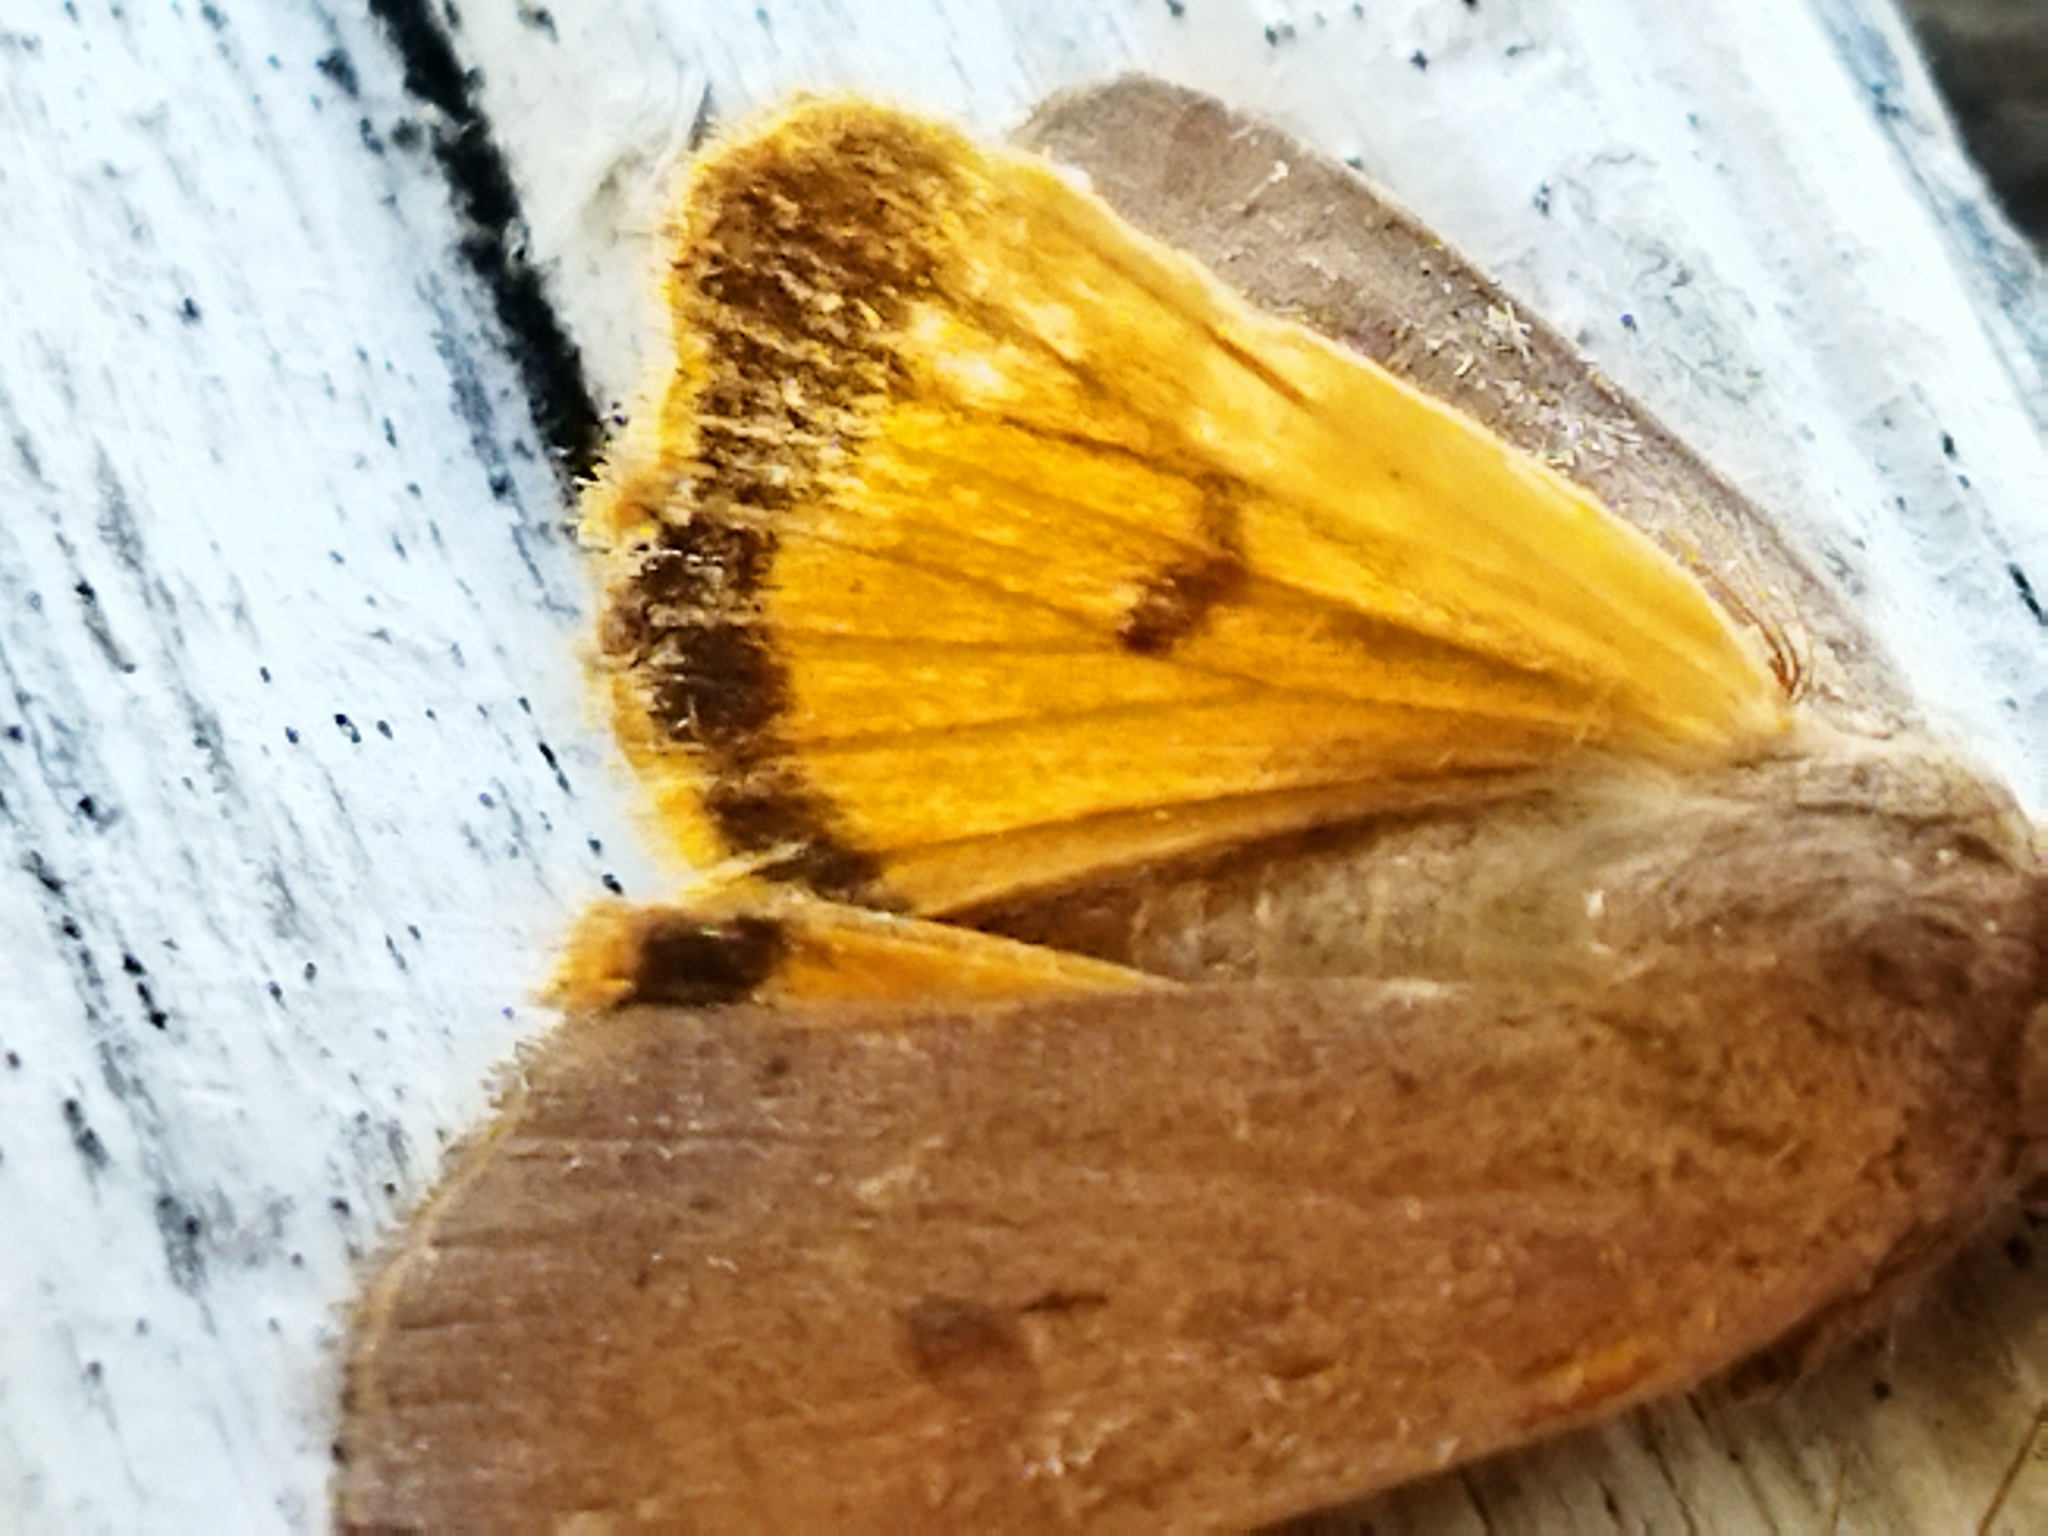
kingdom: Animalia
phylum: Arthropoda
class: Insecta
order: Lepidoptera
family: Noctuidae
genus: Noctua
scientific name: Noctua comes
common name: Lesser yellow underwing
